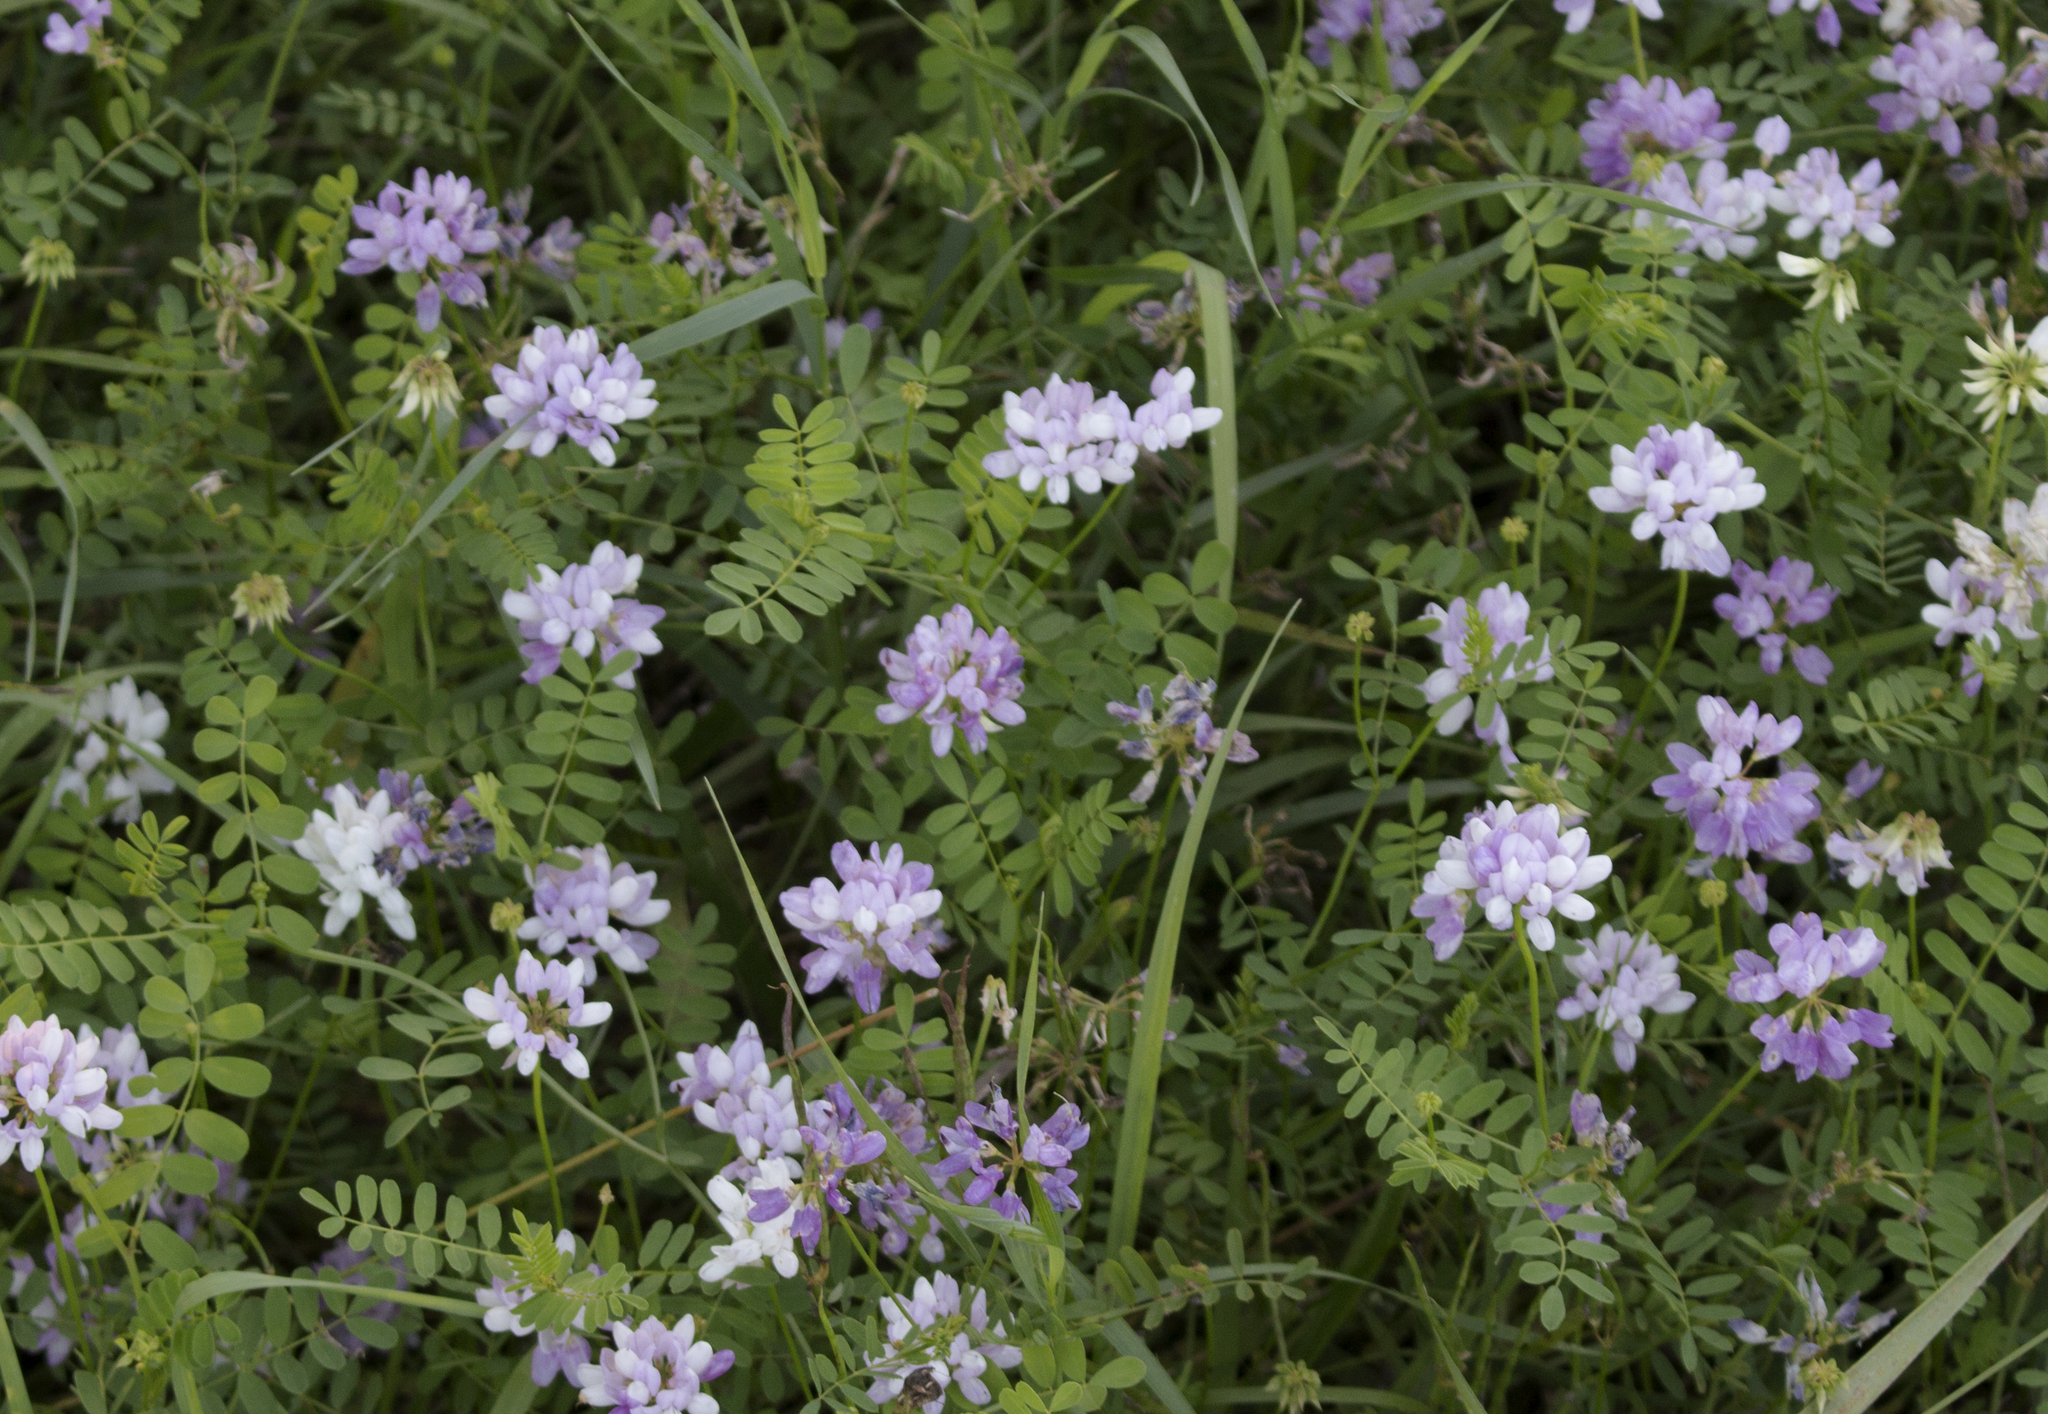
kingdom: Plantae
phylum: Tracheophyta
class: Magnoliopsida
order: Fabales
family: Fabaceae
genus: Coronilla
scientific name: Coronilla varia
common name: Crownvetch
